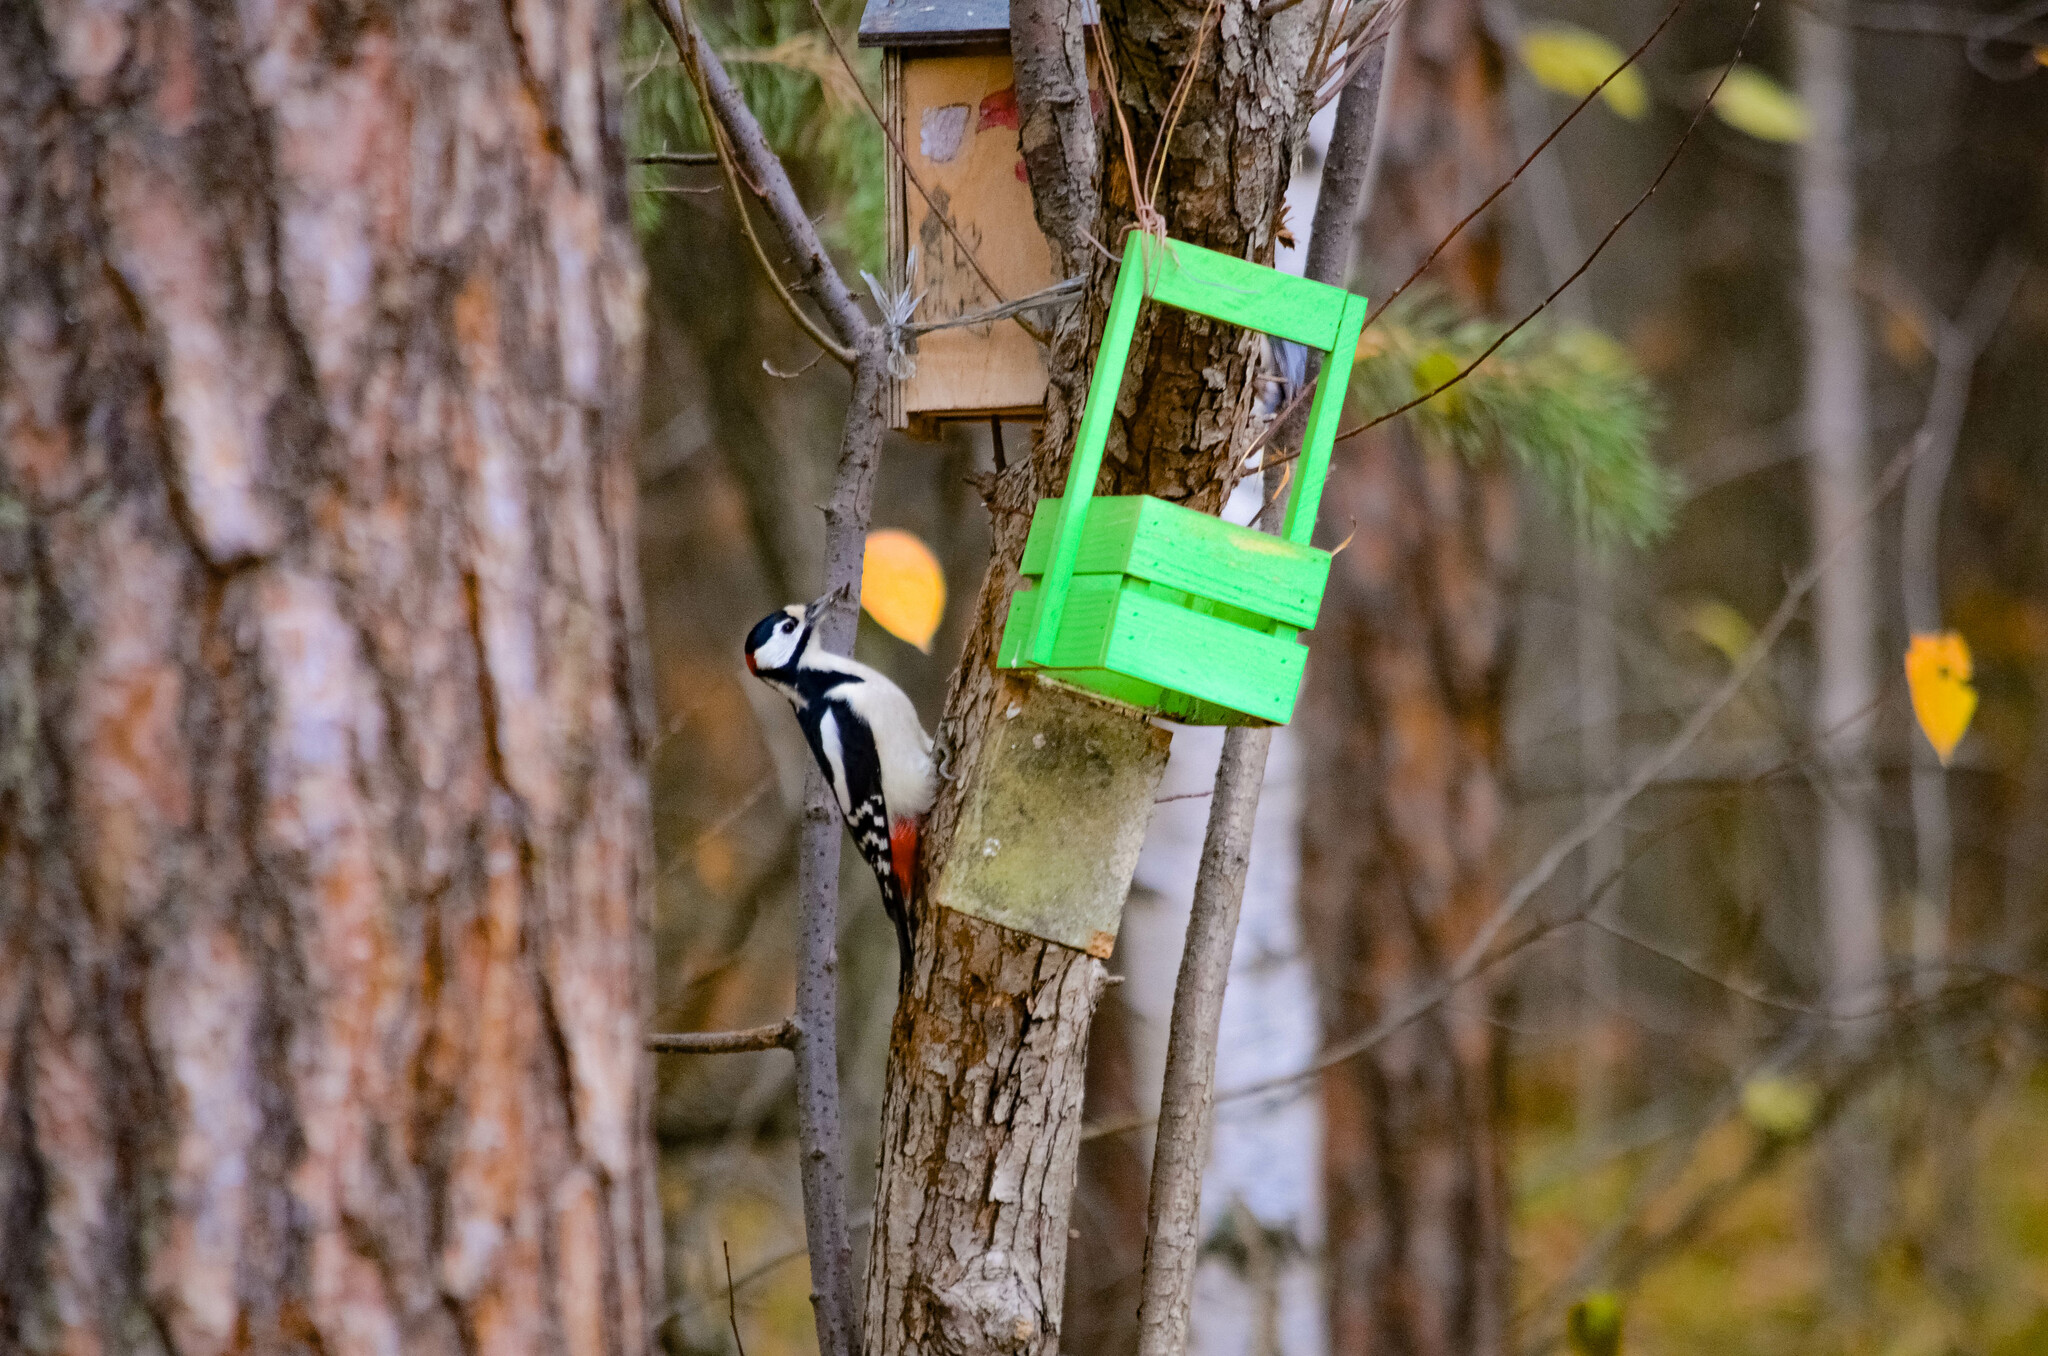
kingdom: Animalia
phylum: Chordata
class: Aves
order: Piciformes
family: Picidae
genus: Dendrocopos
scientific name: Dendrocopos major
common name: Great spotted woodpecker
